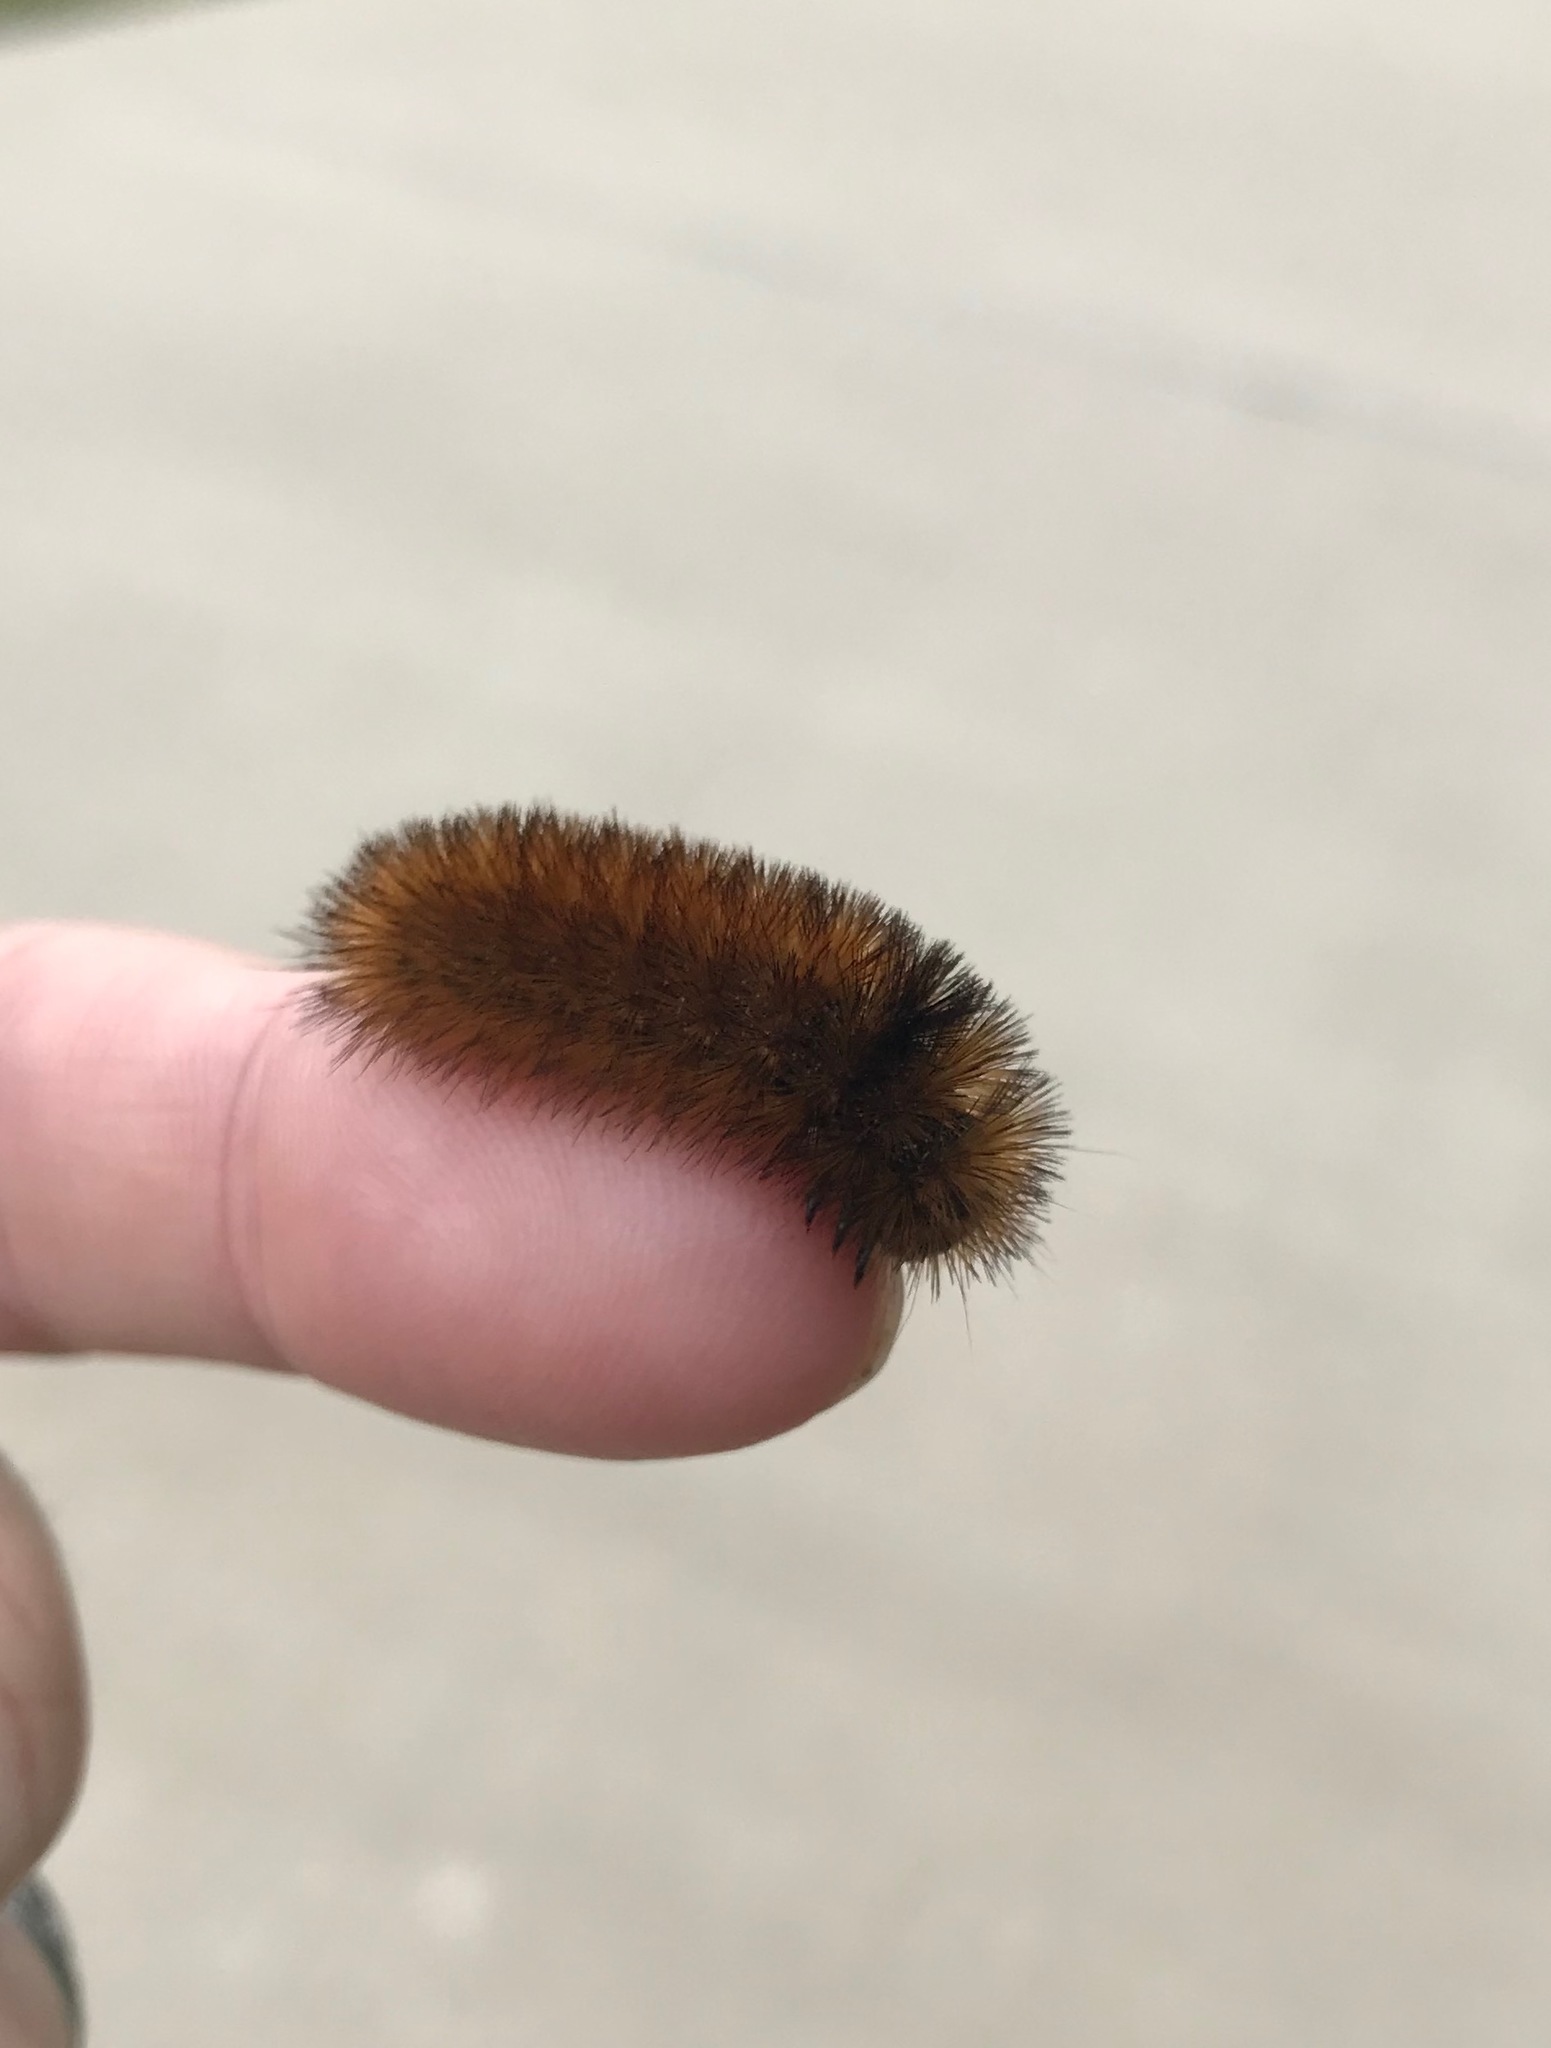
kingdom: Animalia
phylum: Arthropoda
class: Insecta
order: Lepidoptera
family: Erebidae
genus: Pyrrharctia
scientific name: Pyrrharctia isabella
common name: Isabella tiger moth
